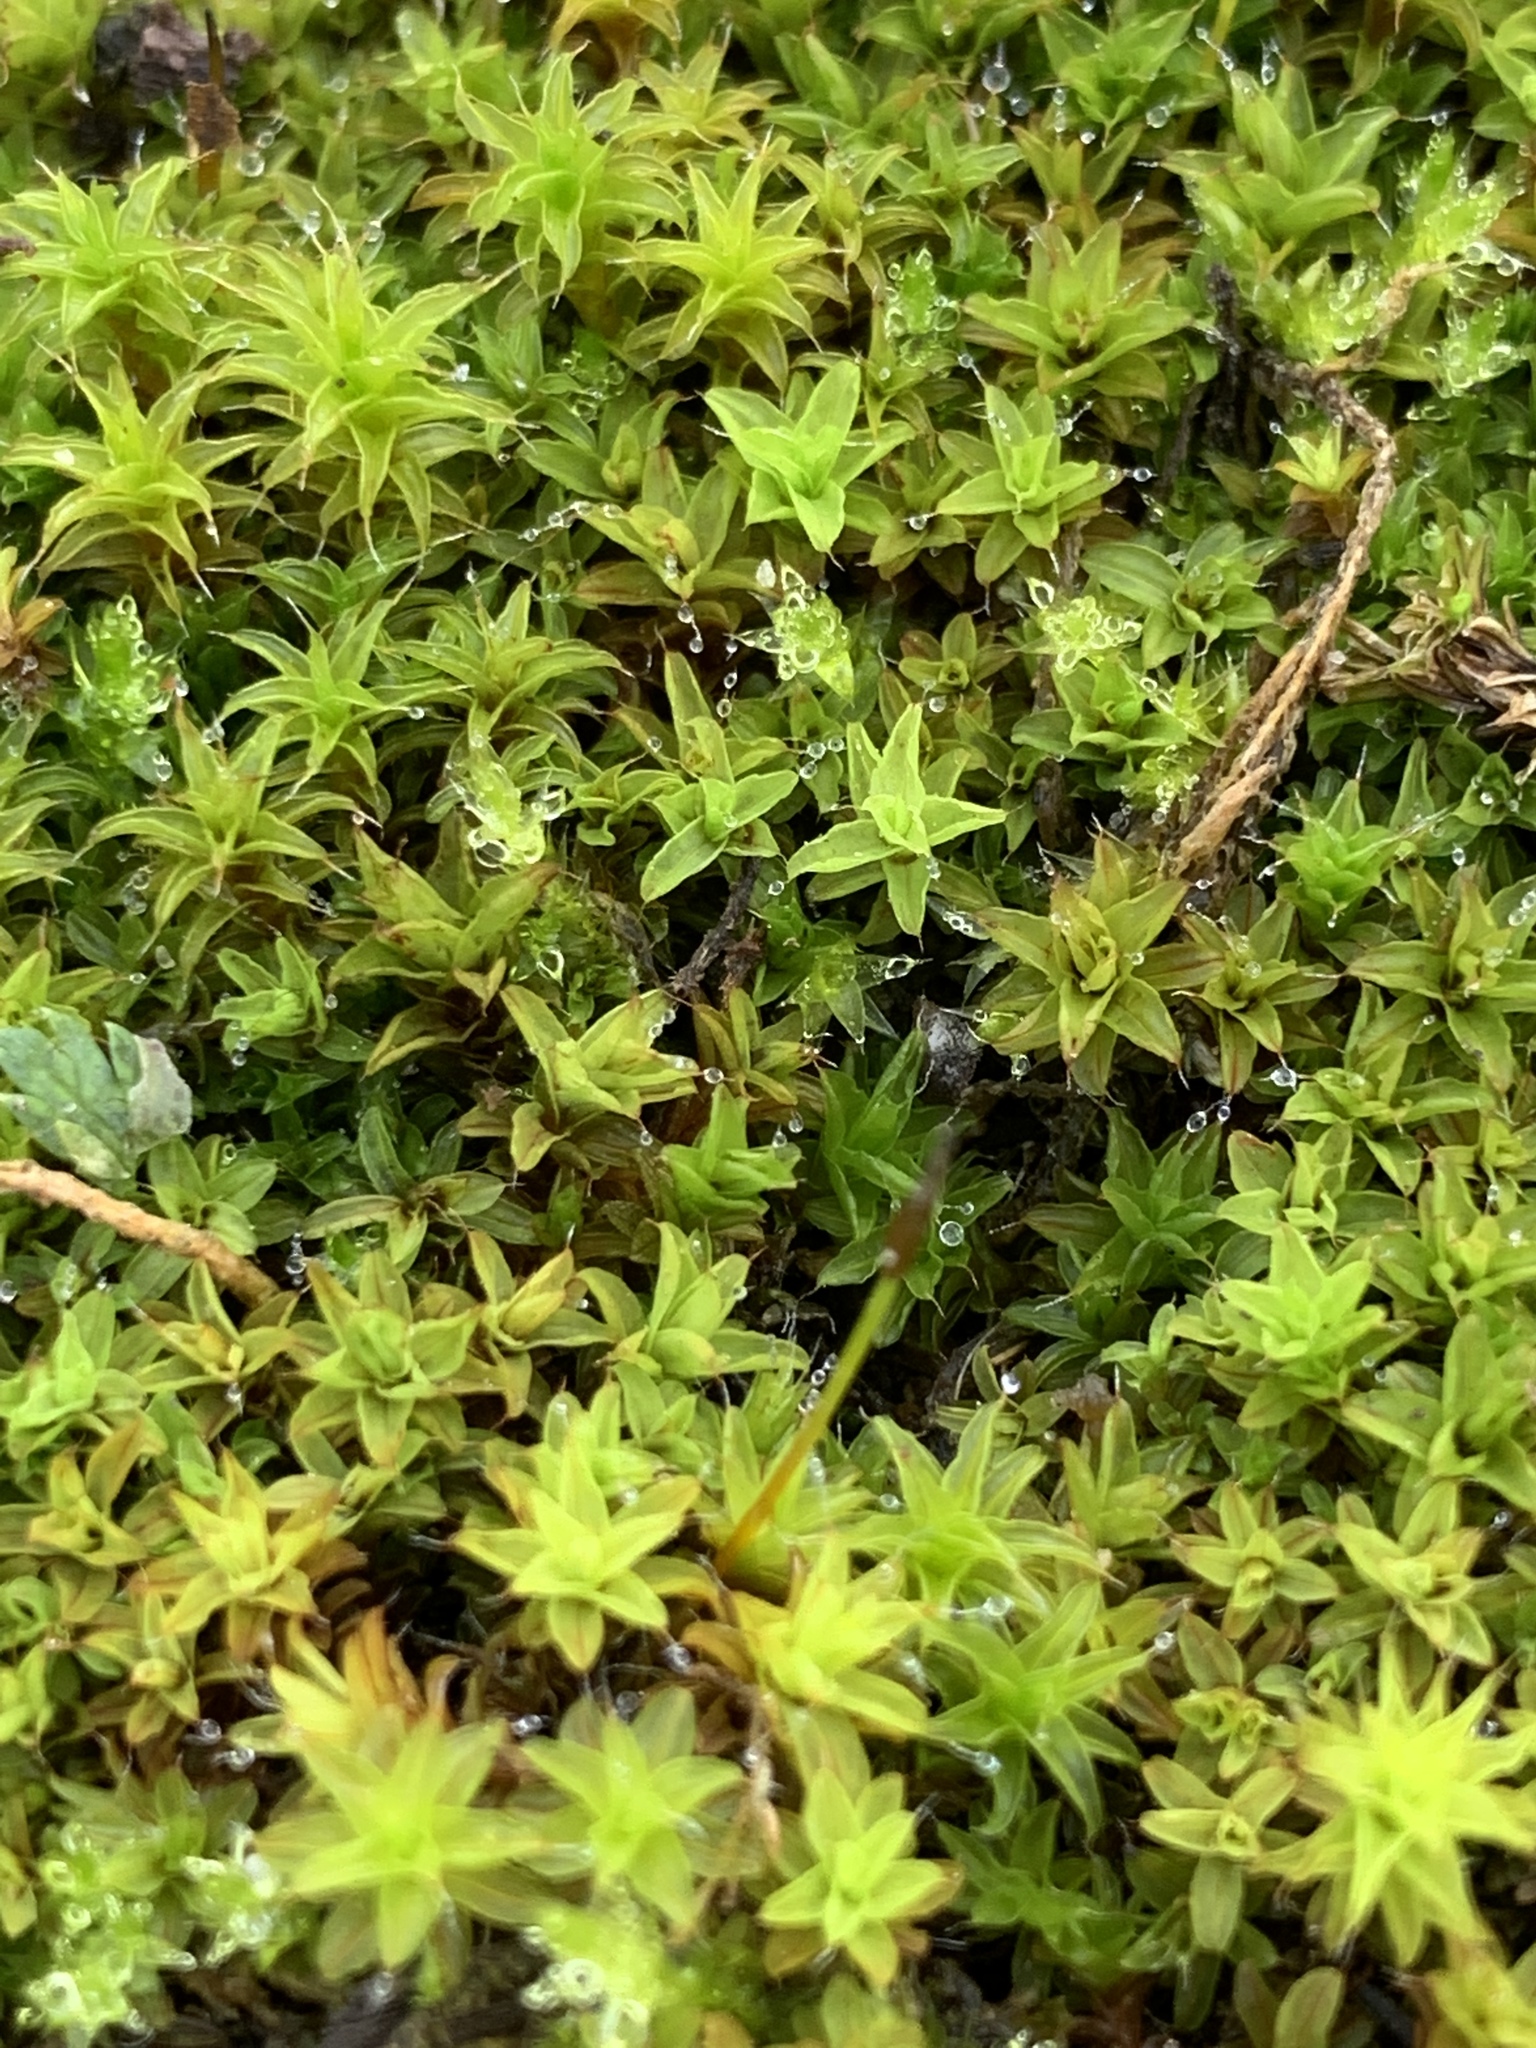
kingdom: Plantae
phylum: Bryophyta
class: Bryopsida
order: Pottiales
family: Pottiaceae
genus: Syntrichia
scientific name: Syntrichia ruralis
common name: Sidewalk screw moss
